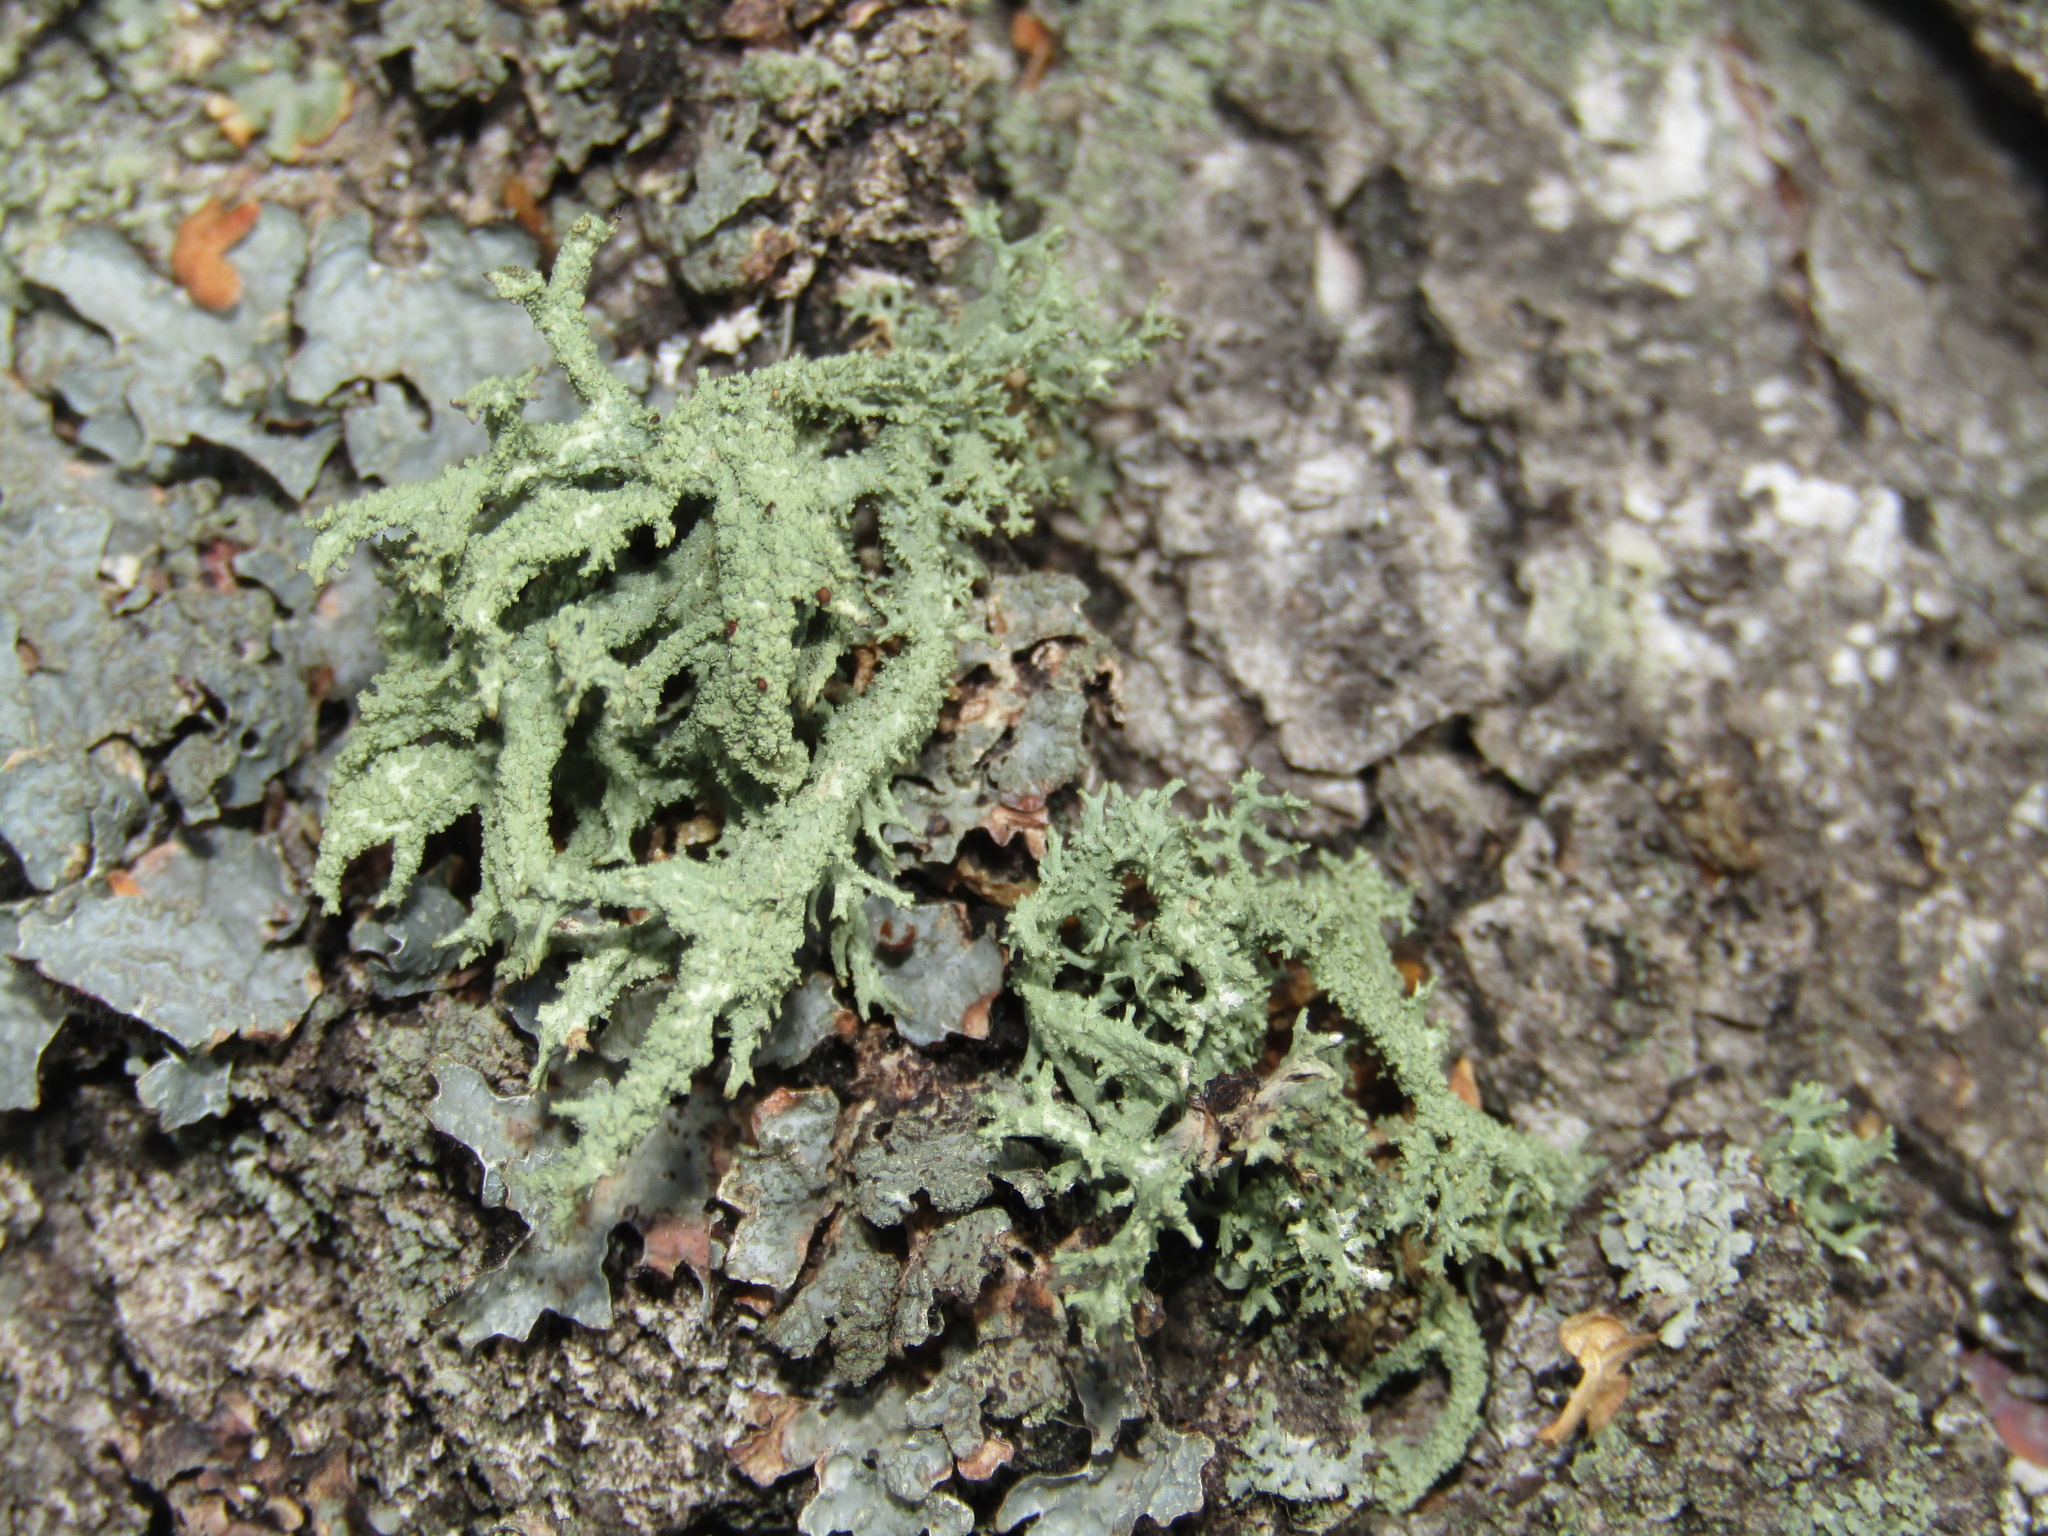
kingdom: Fungi
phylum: Ascomycota
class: Lecanoromycetes
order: Lecanorales
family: Parmeliaceae
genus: Evernia
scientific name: Evernia mesomorpha
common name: Boreal oak moss lichen
